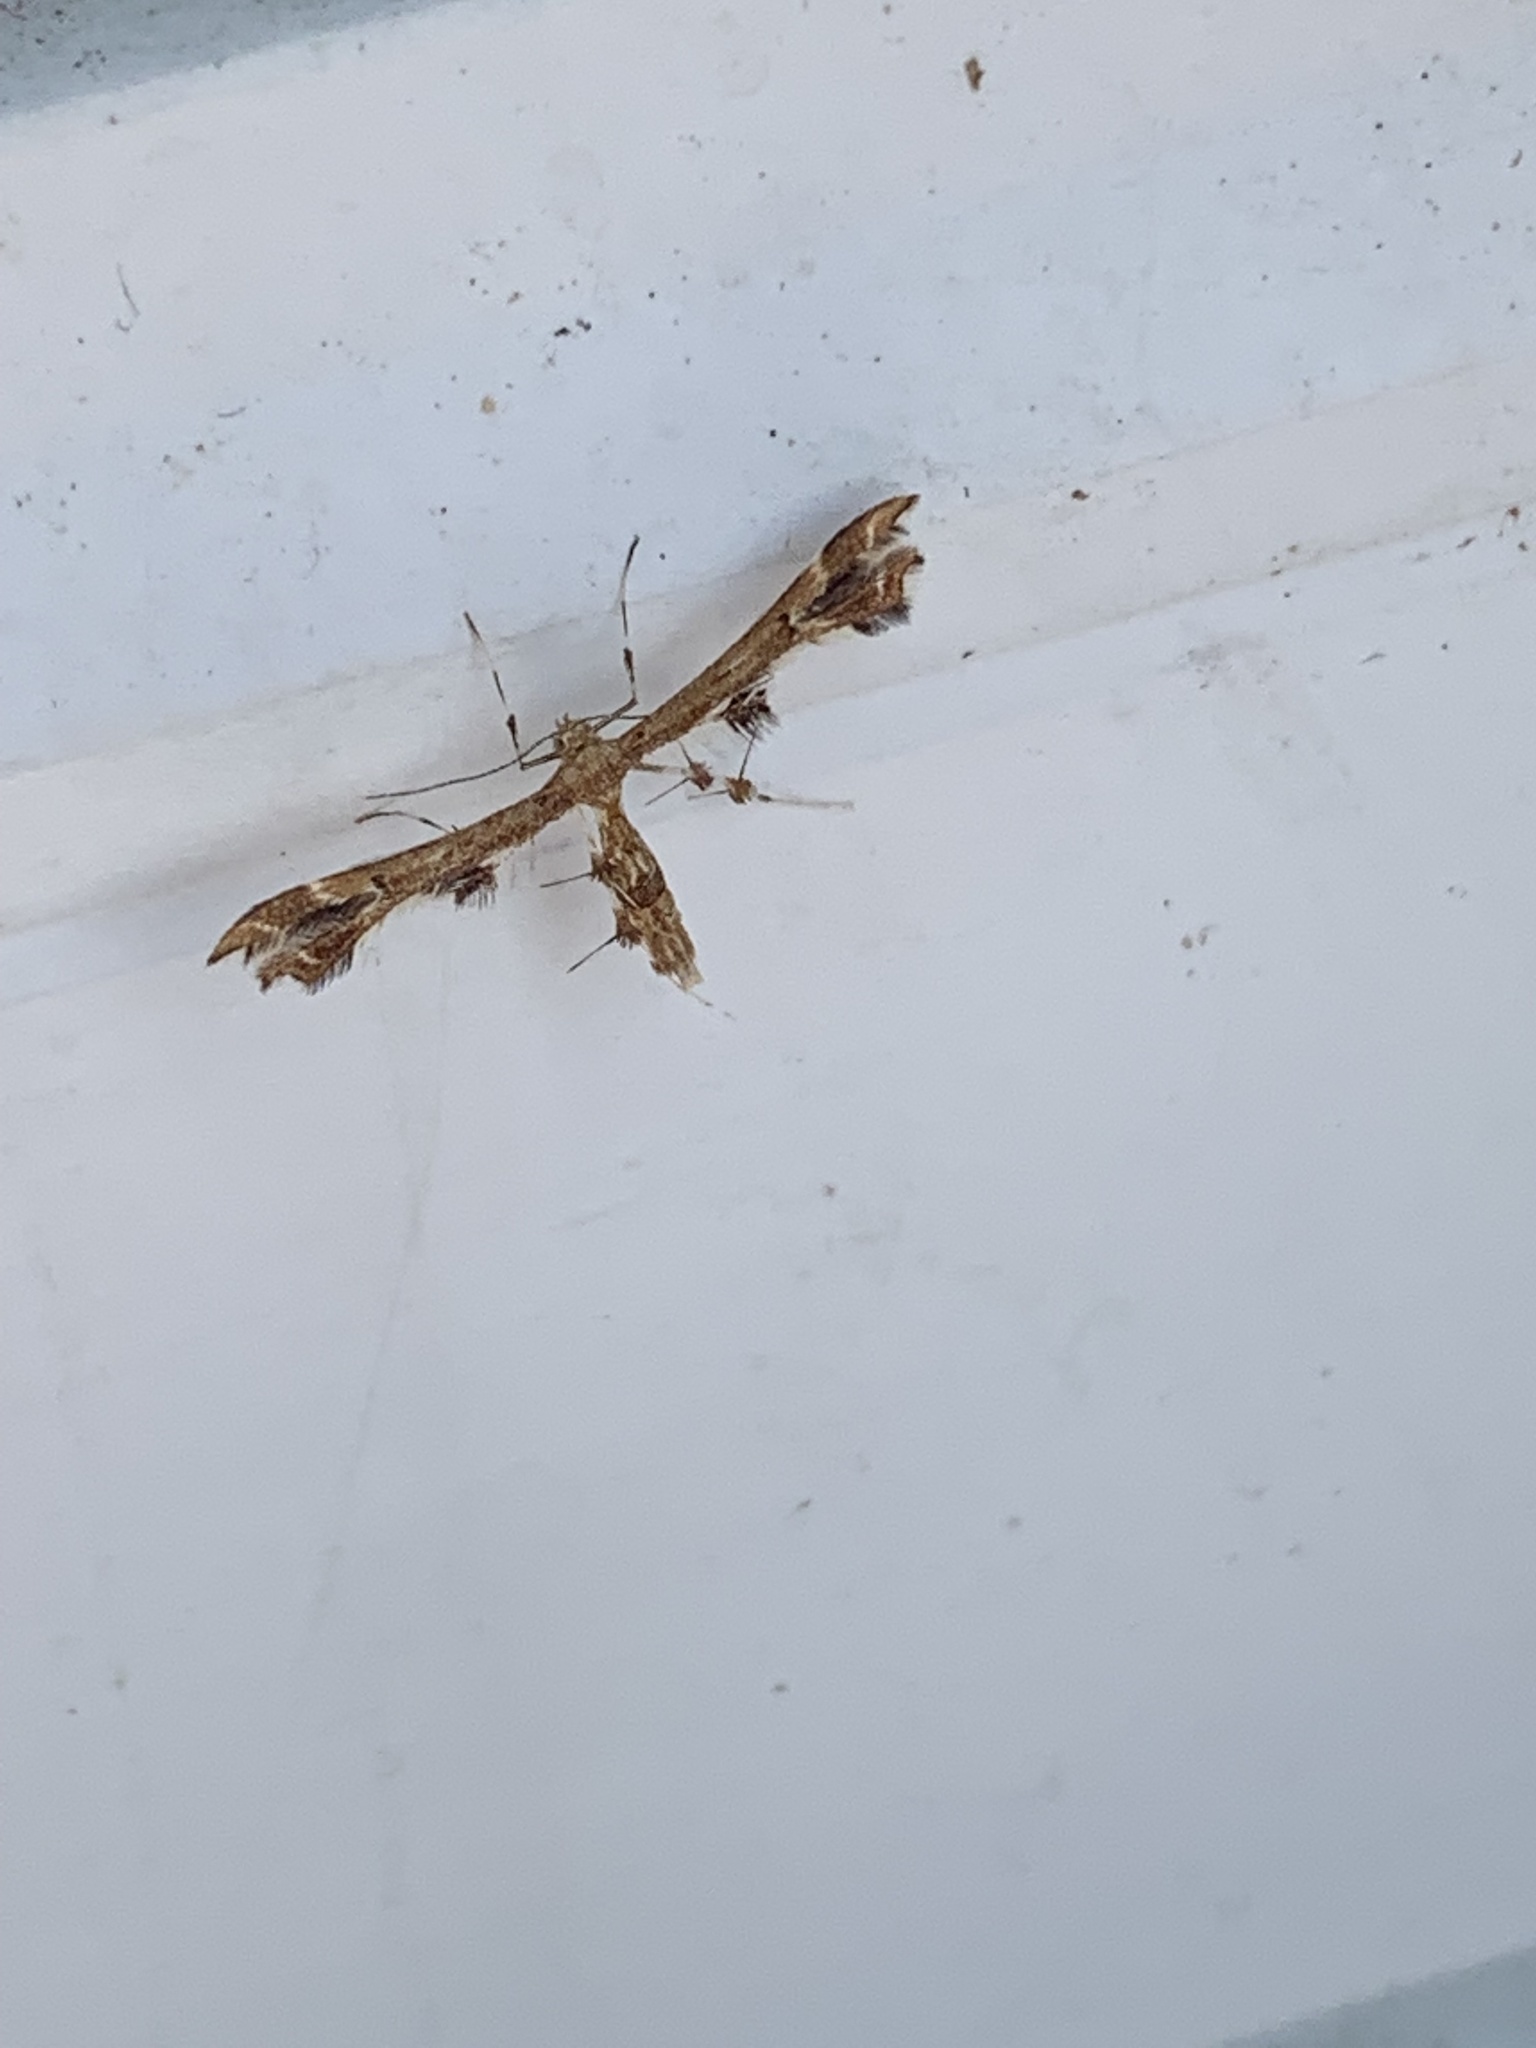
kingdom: Animalia
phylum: Arthropoda
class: Insecta
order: Lepidoptera
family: Pterophoridae
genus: Geina
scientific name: Geina
